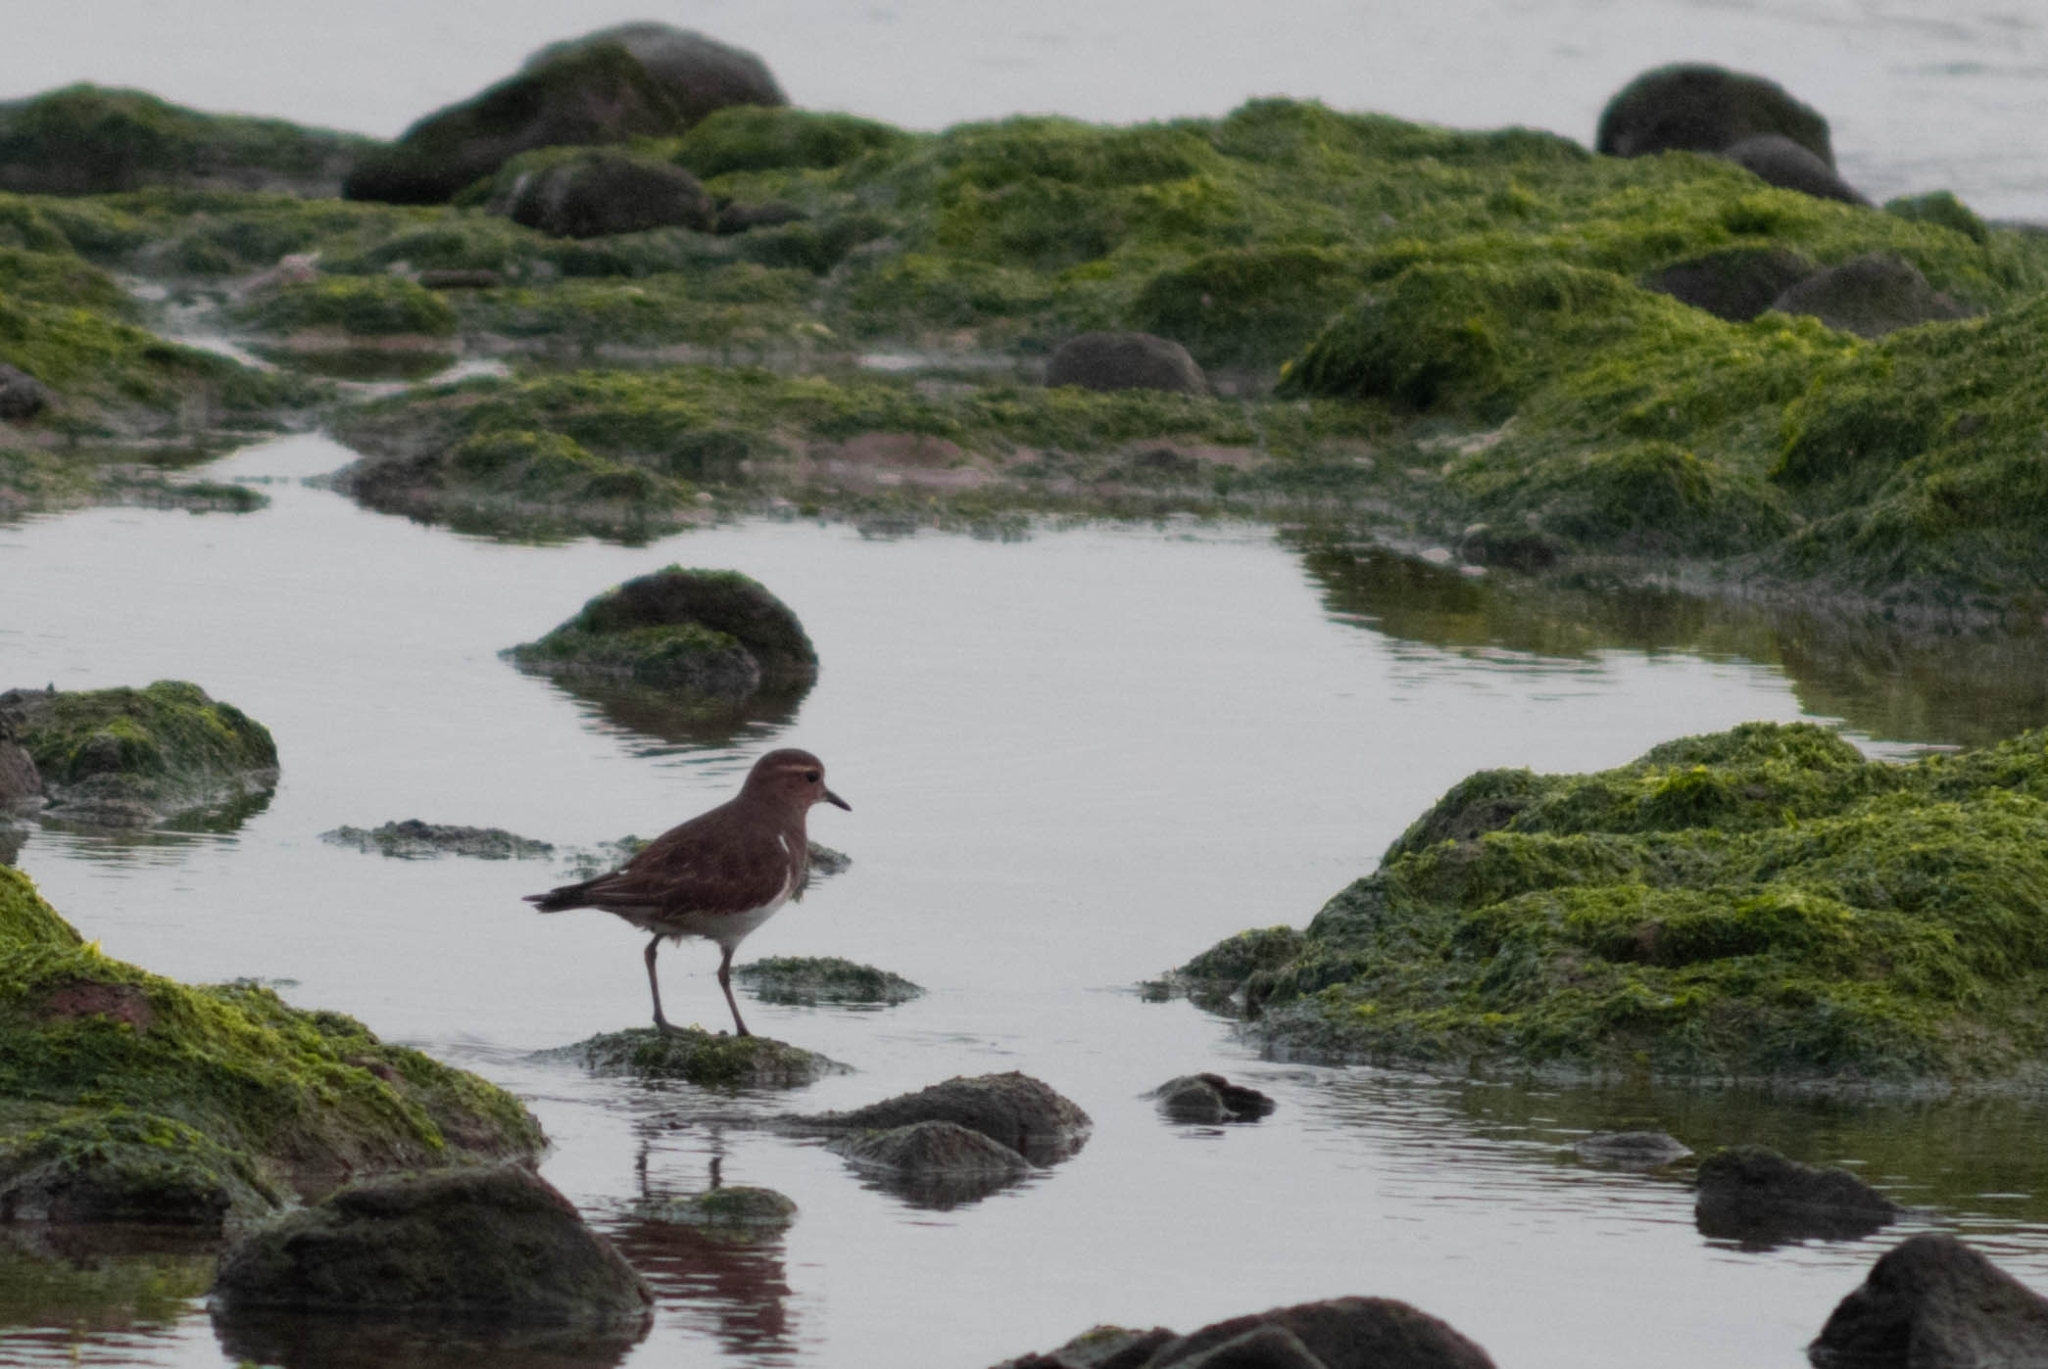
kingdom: Animalia
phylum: Chordata
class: Aves
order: Charadriiformes
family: Charadriidae
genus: Charadrius
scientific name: Charadrius modestus
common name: Rufous-chested plover
